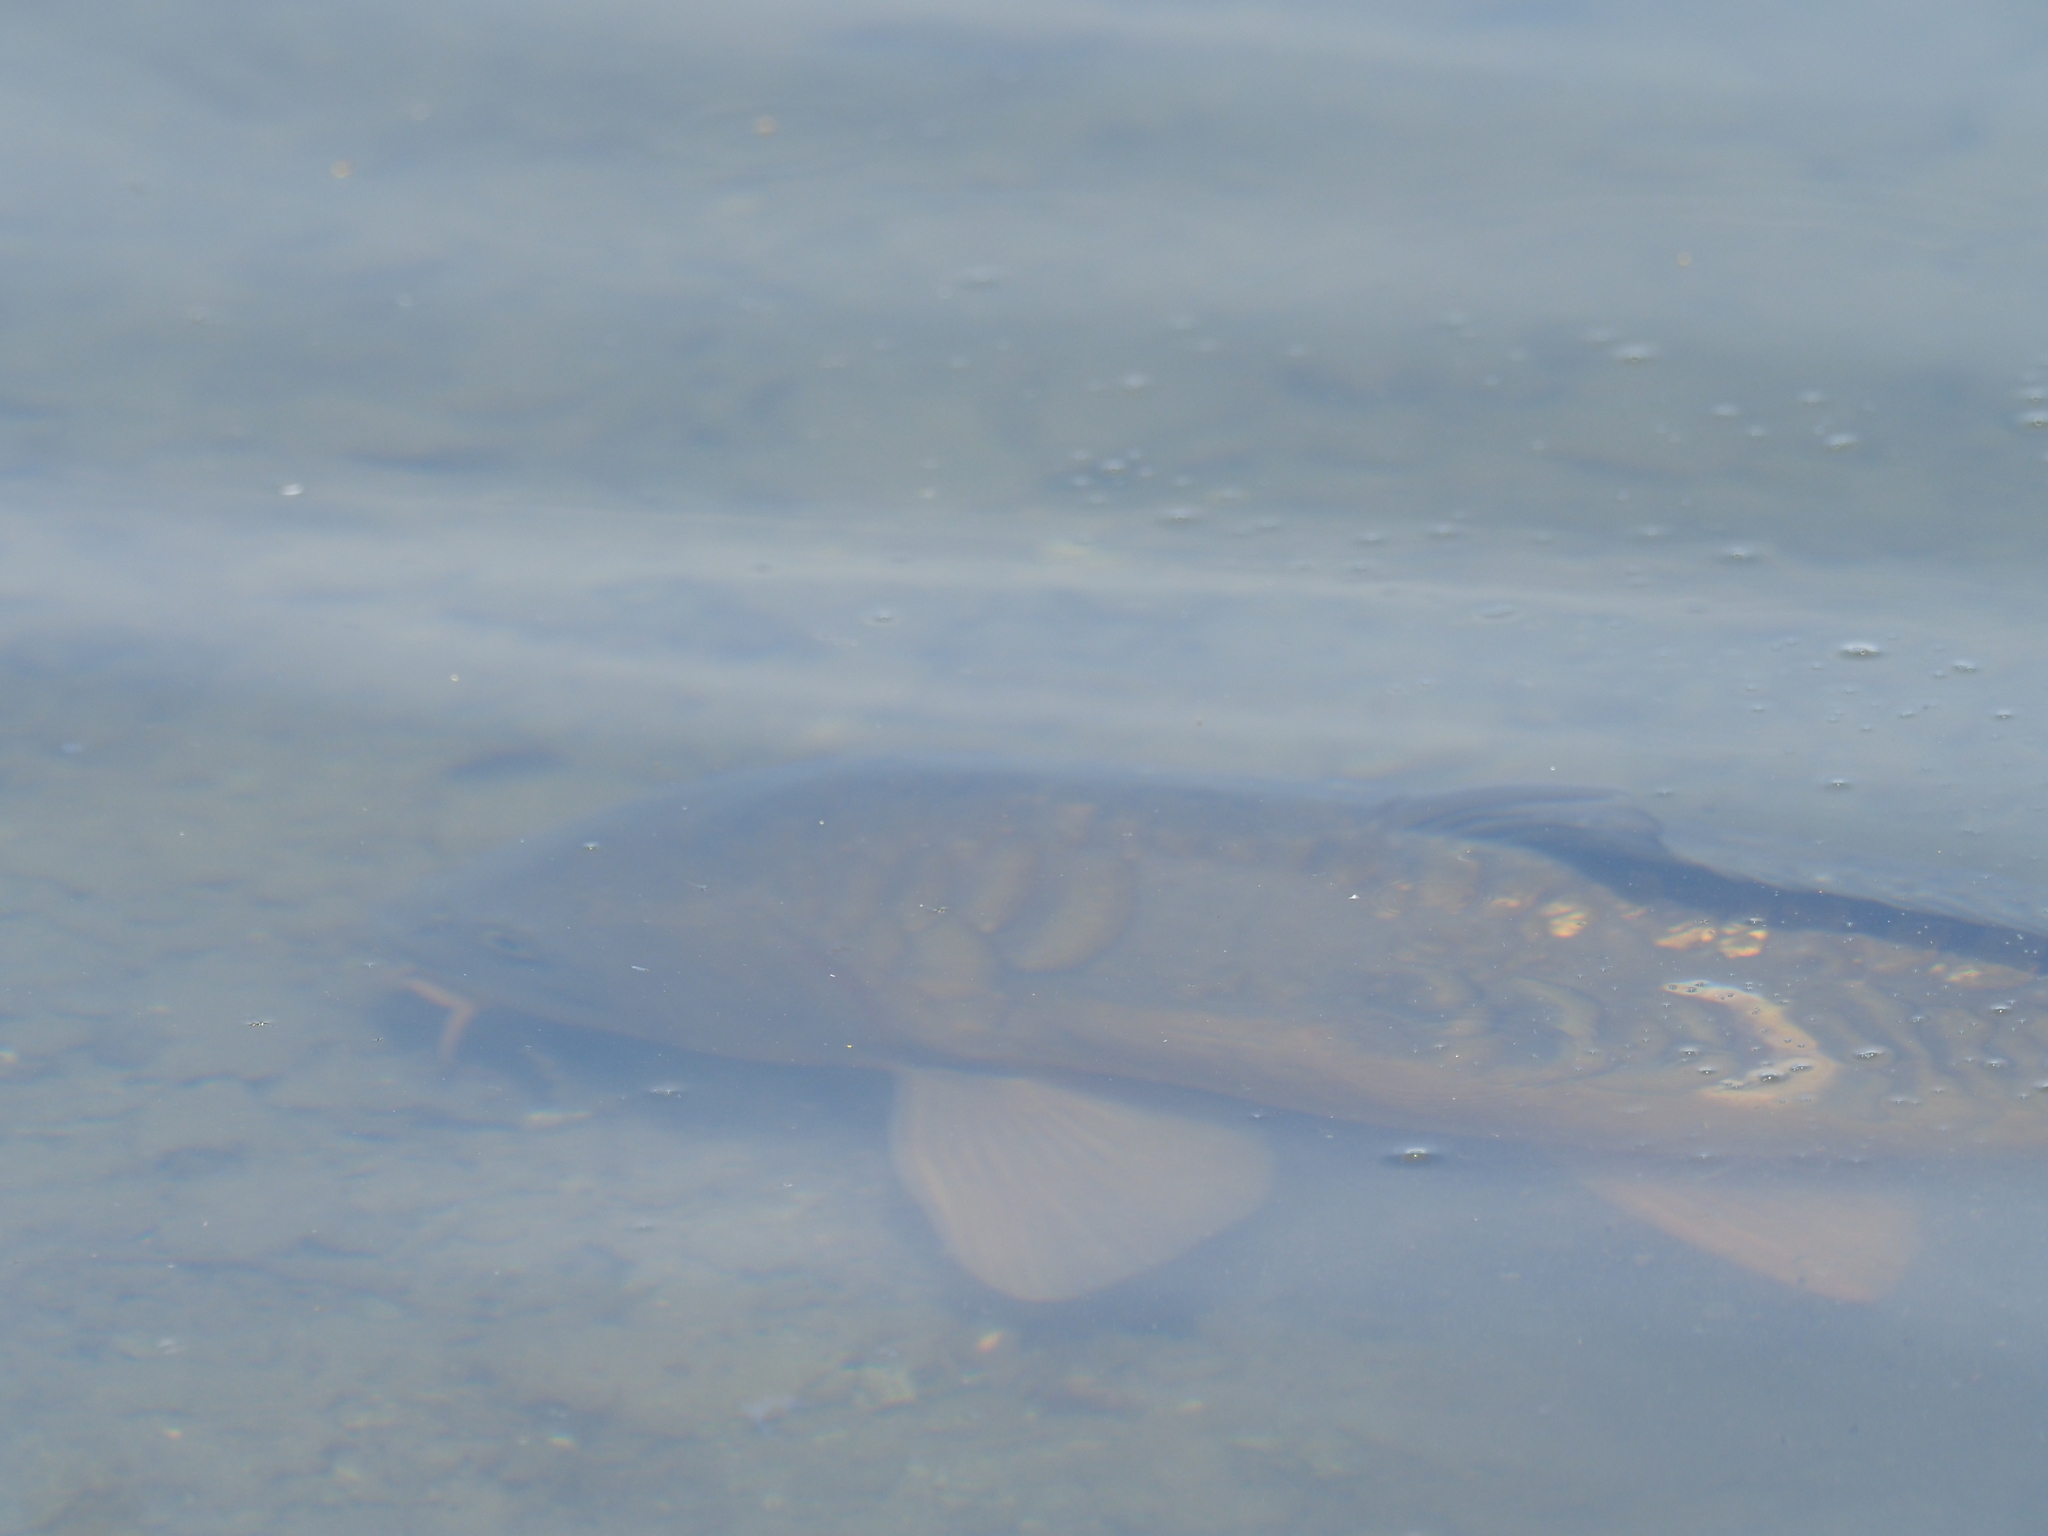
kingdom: Animalia
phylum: Chordata
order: Cypriniformes
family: Cyprinidae
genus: Cyprinus
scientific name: Cyprinus carpio
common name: Common carp
